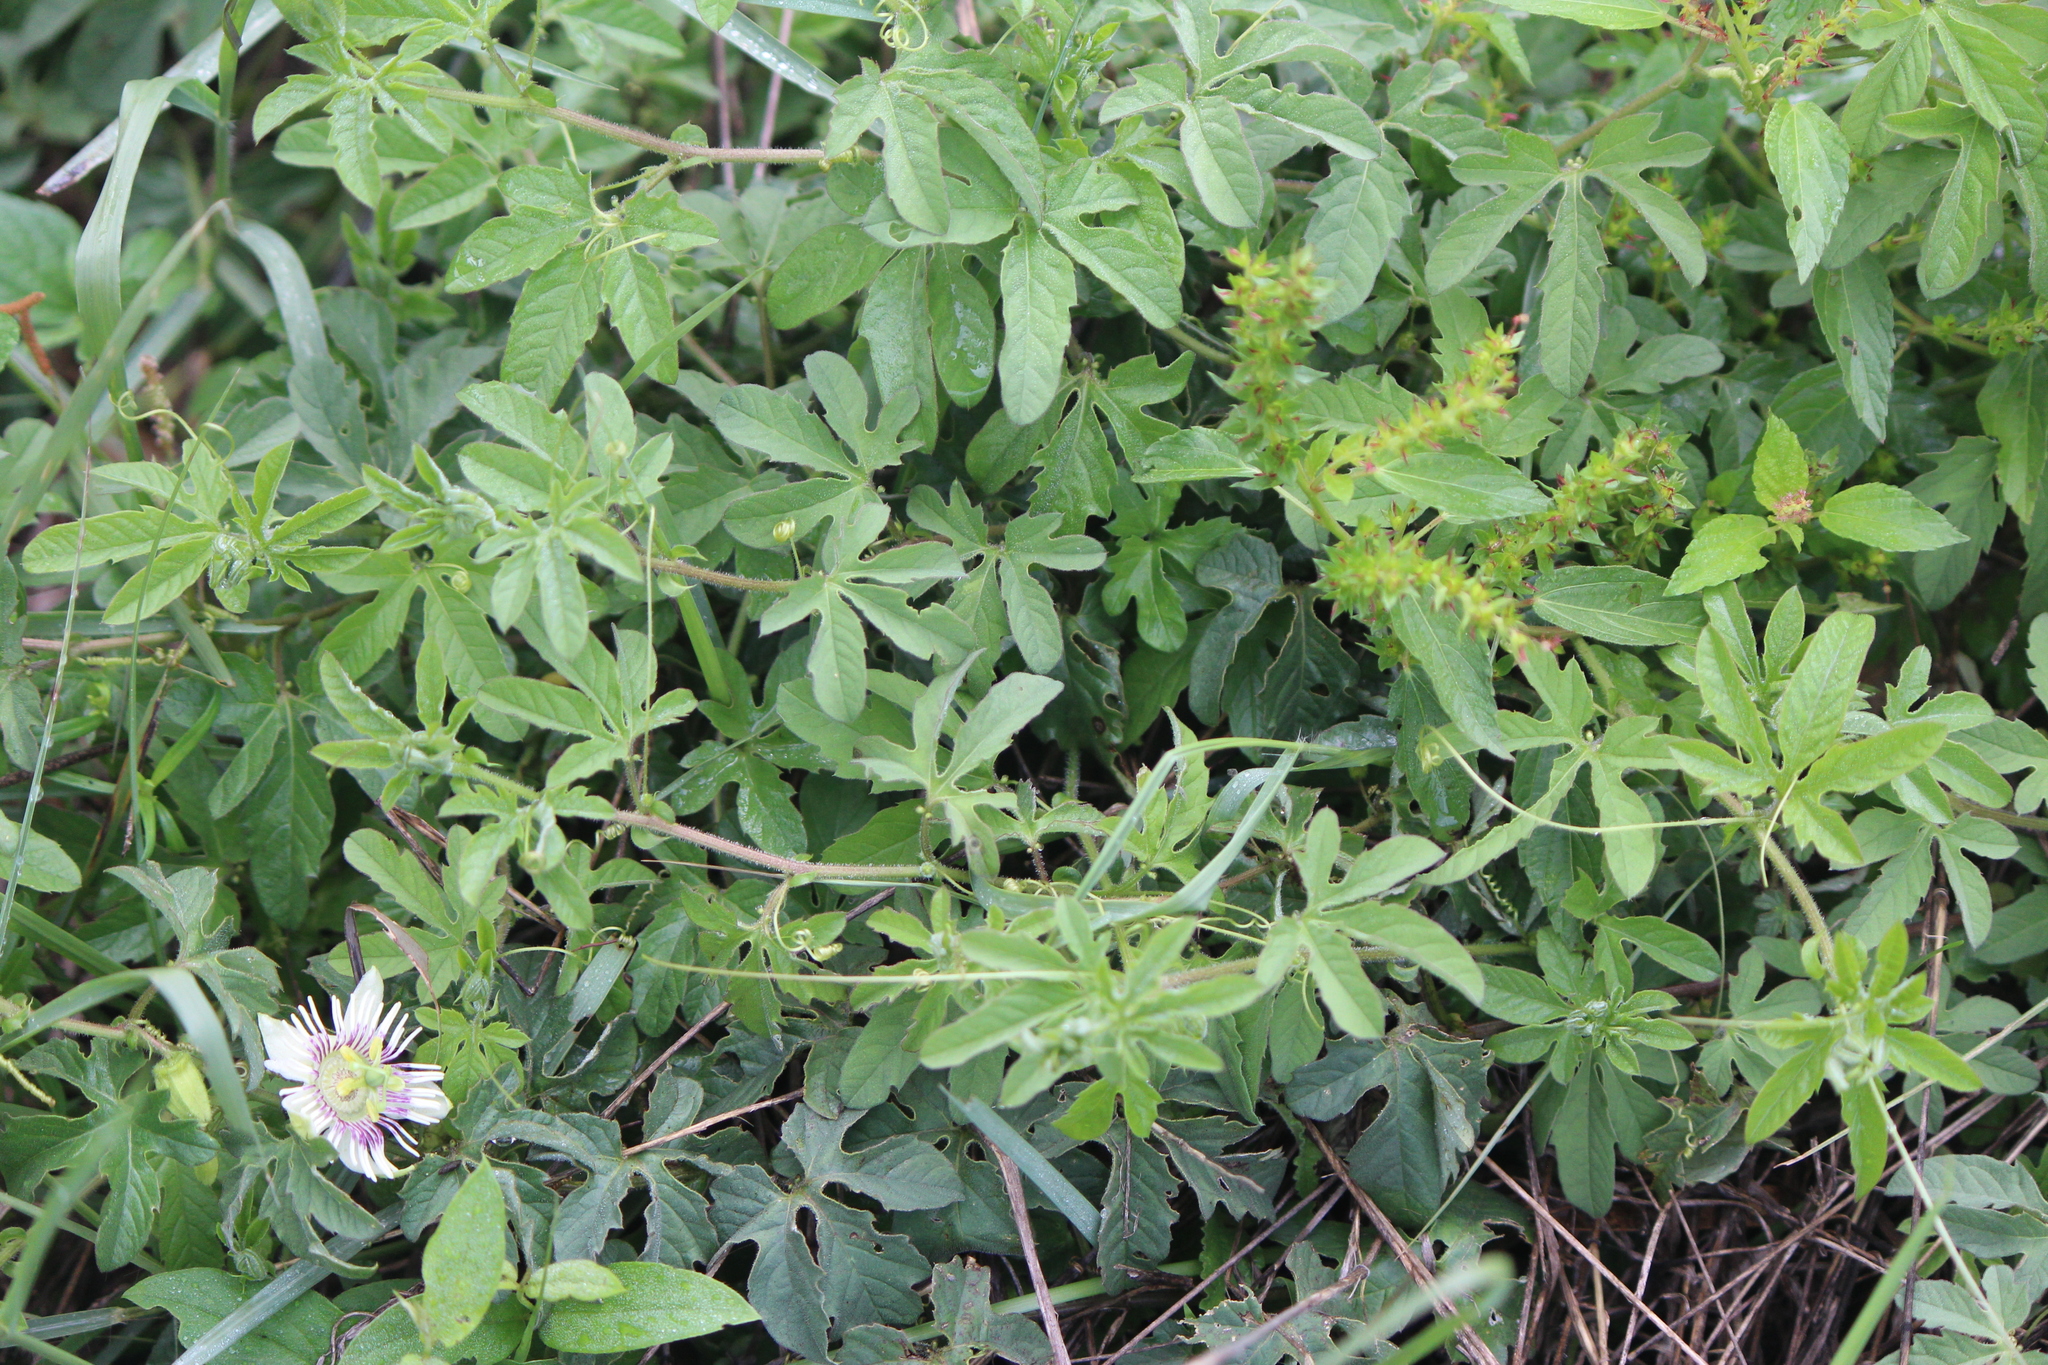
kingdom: Plantae
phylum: Tracheophyta
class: Magnoliopsida
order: Malpighiales
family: Passifloraceae
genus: Passiflora
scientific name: Passiflora bryonioides
